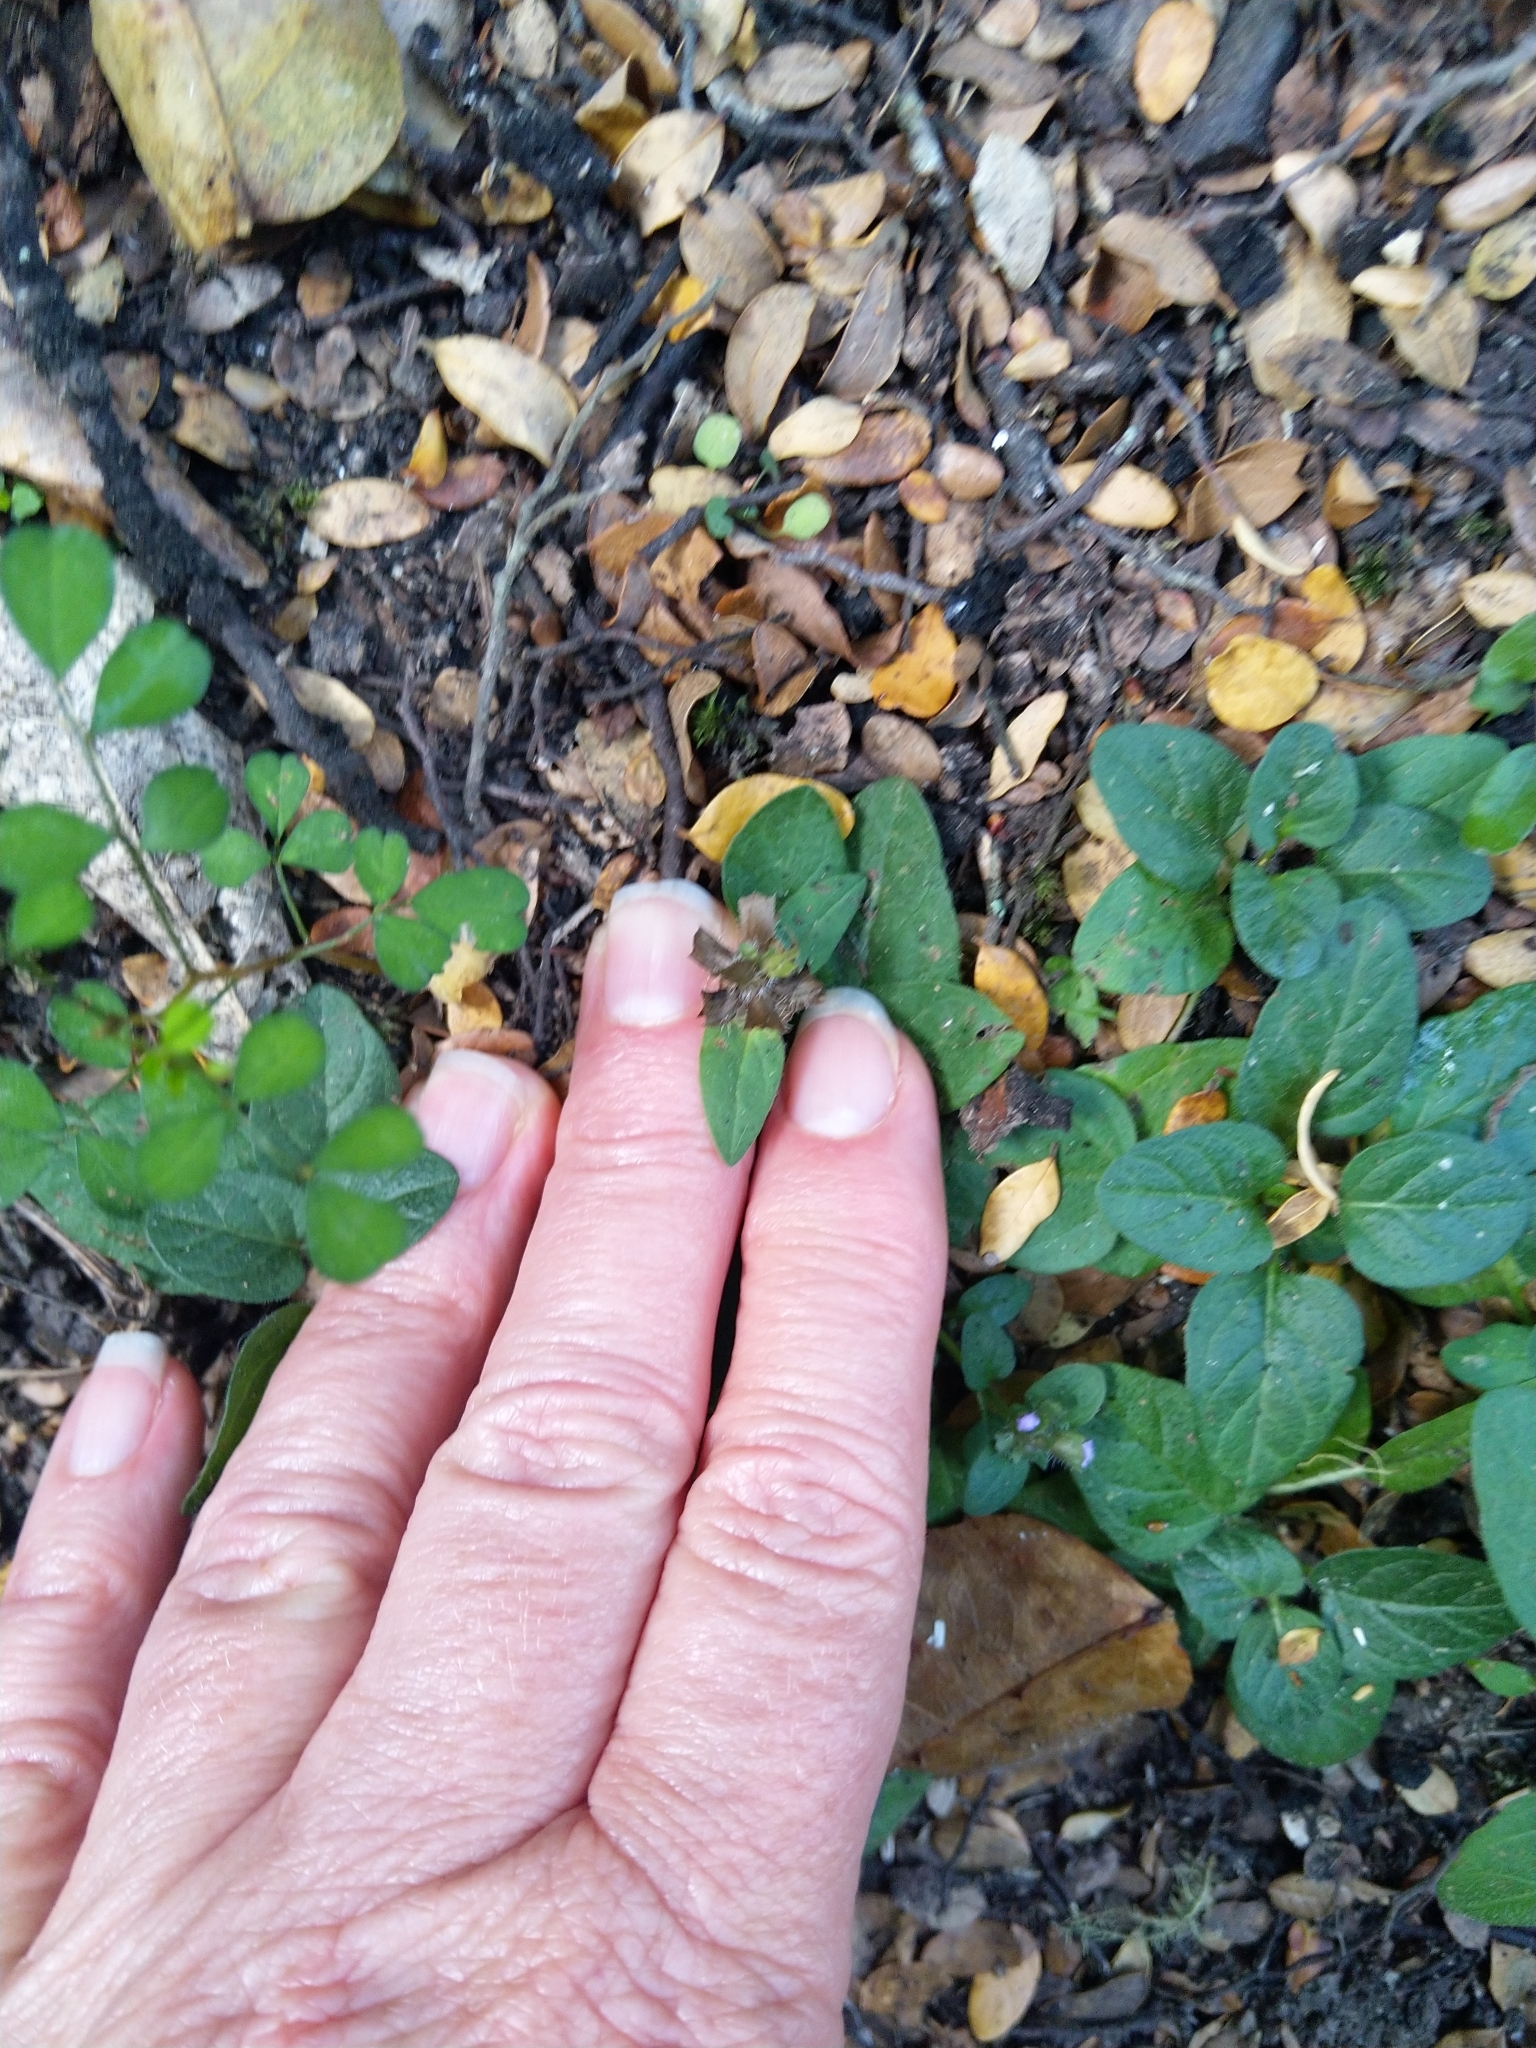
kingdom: Plantae
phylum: Tracheophyta
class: Magnoliopsida
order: Lamiales
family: Lamiaceae
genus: Prunella
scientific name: Prunella vulgaris
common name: Heal-all
